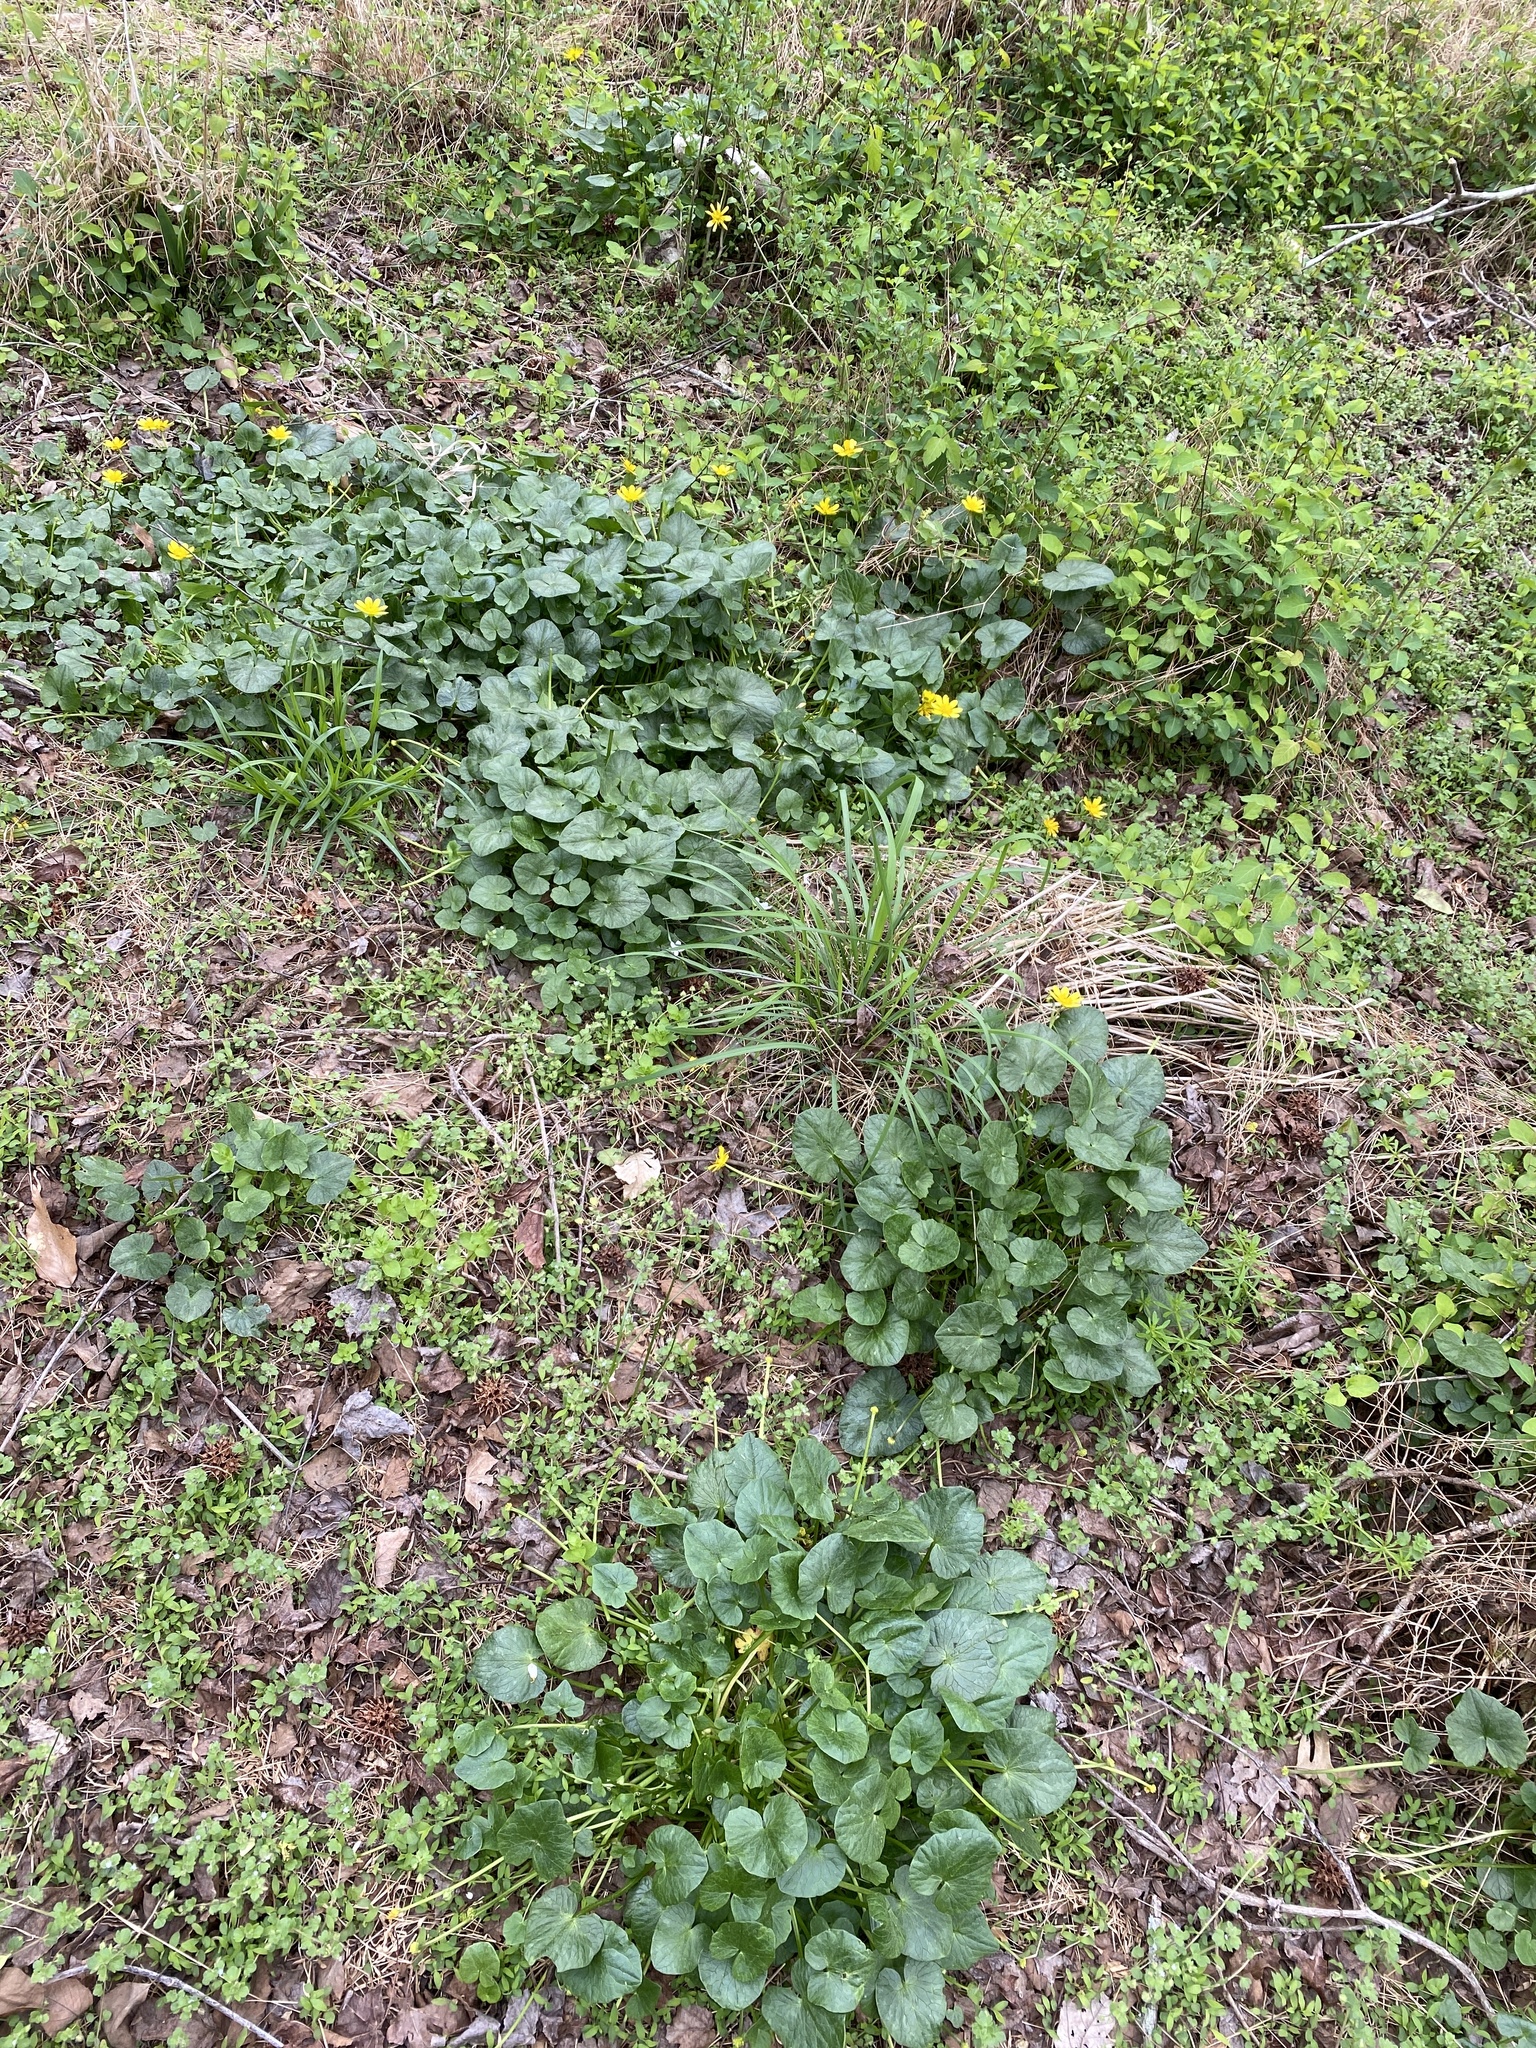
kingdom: Plantae
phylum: Tracheophyta
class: Magnoliopsida
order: Ranunculales
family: Ranunculaceae
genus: Ficaria
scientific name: Ficaria verna
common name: Lesser celandine
